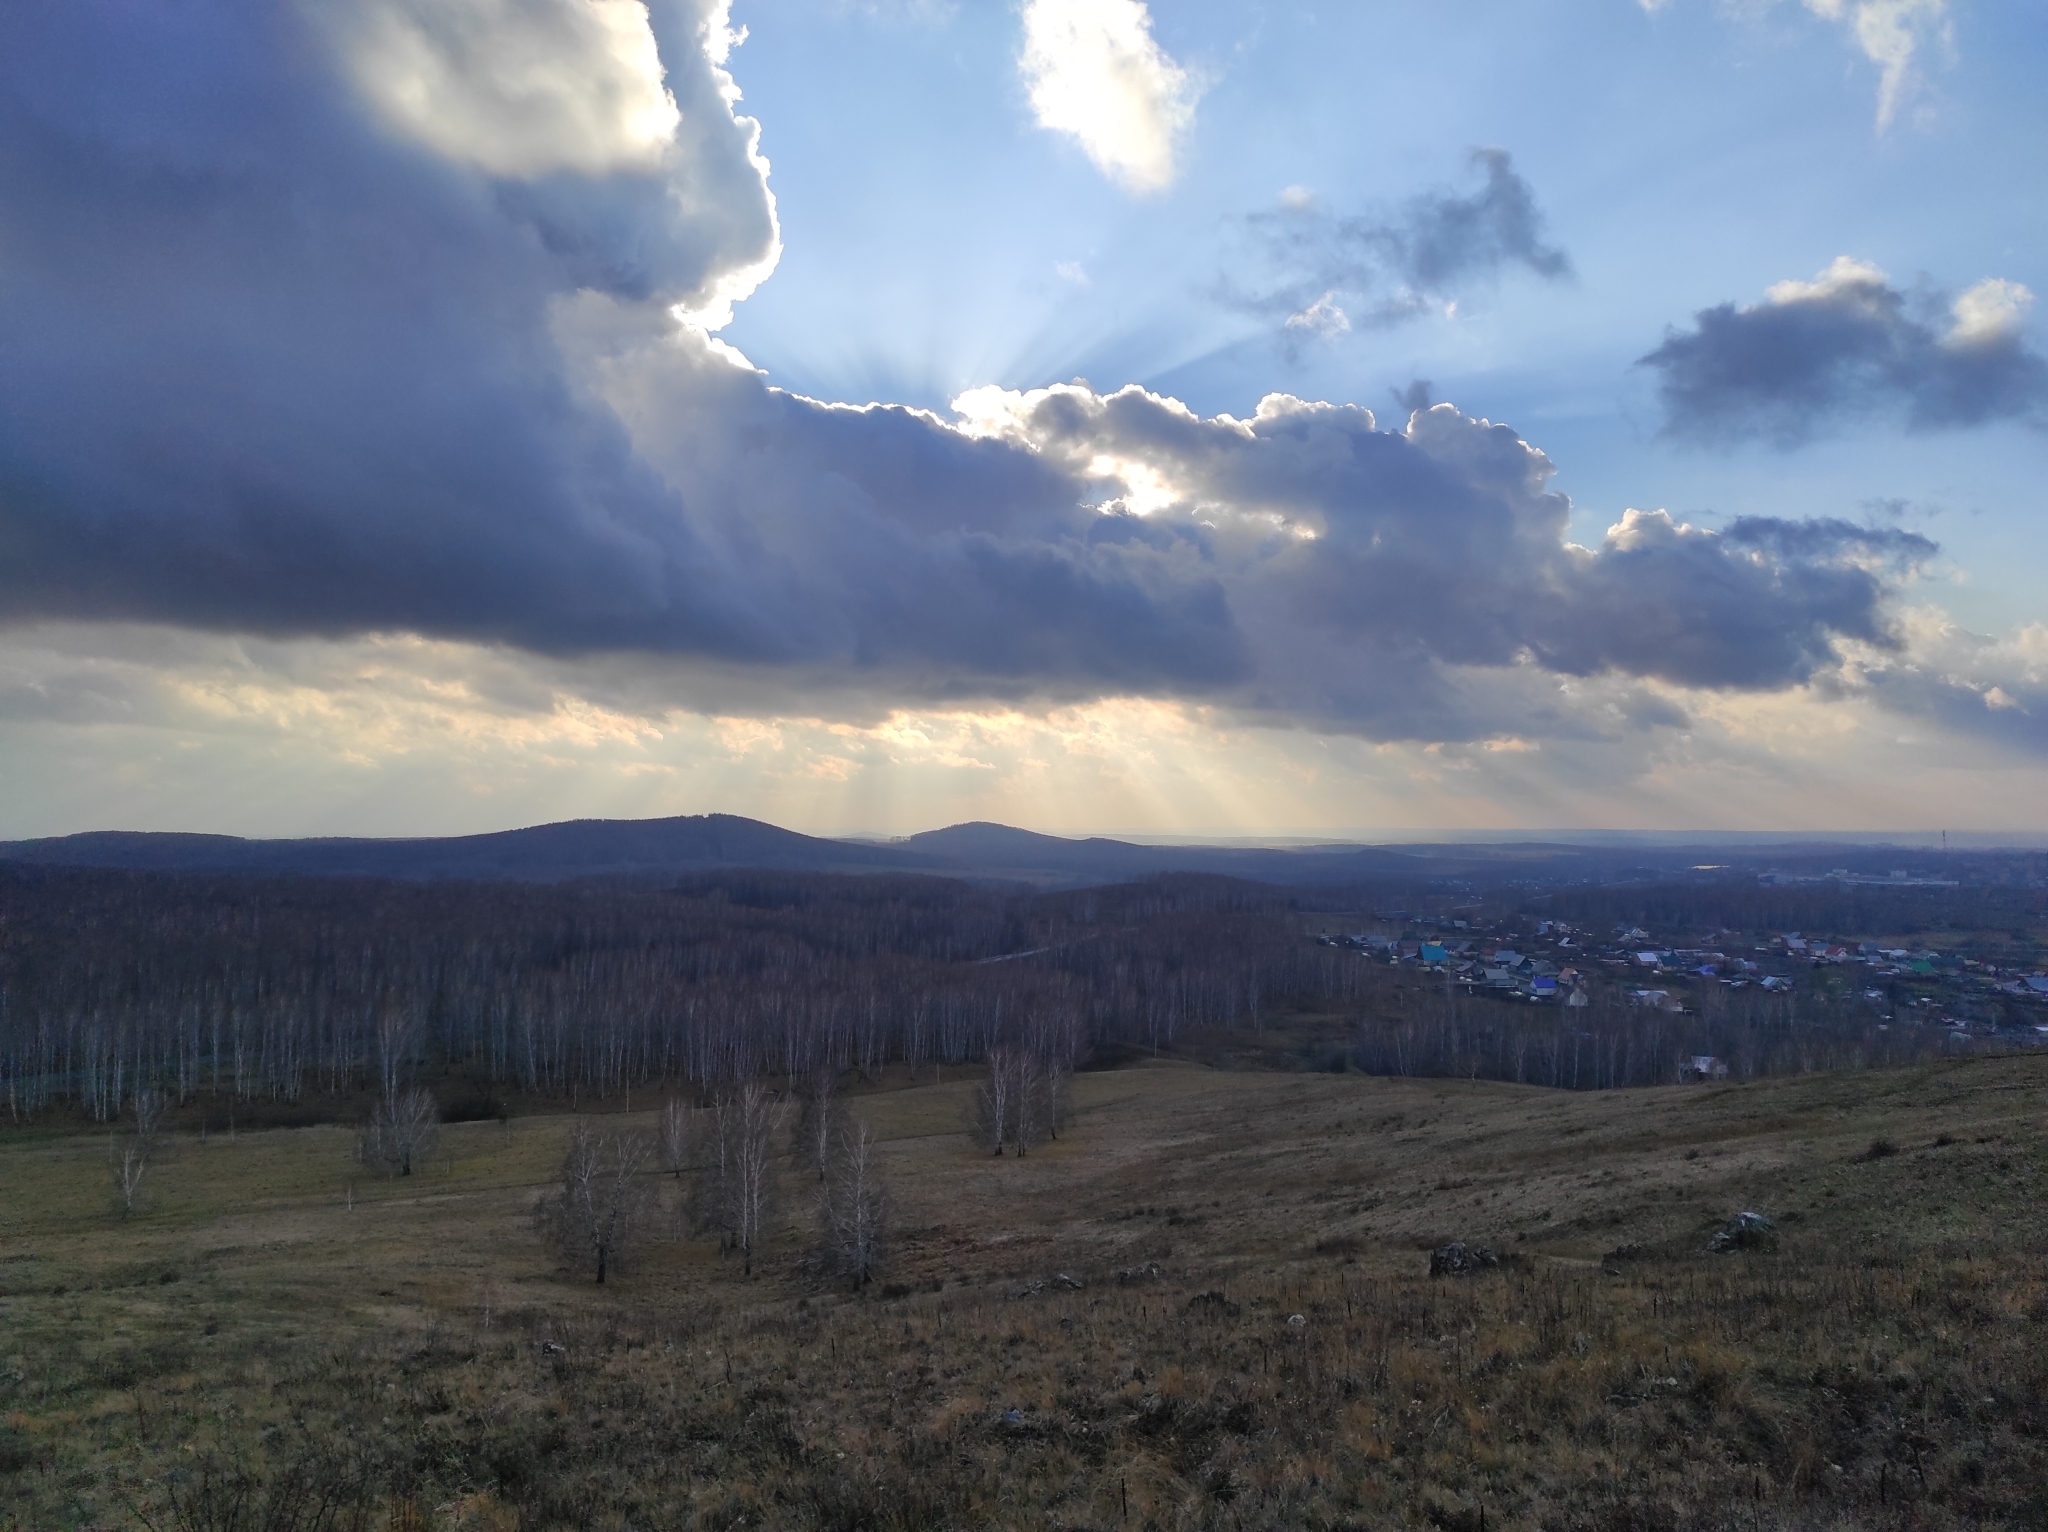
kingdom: Plantae
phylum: Tracheophyta
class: Magnoliopsida
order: Fagales
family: Betulaceae
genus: Betula
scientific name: Betula pendula
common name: Silver birch
